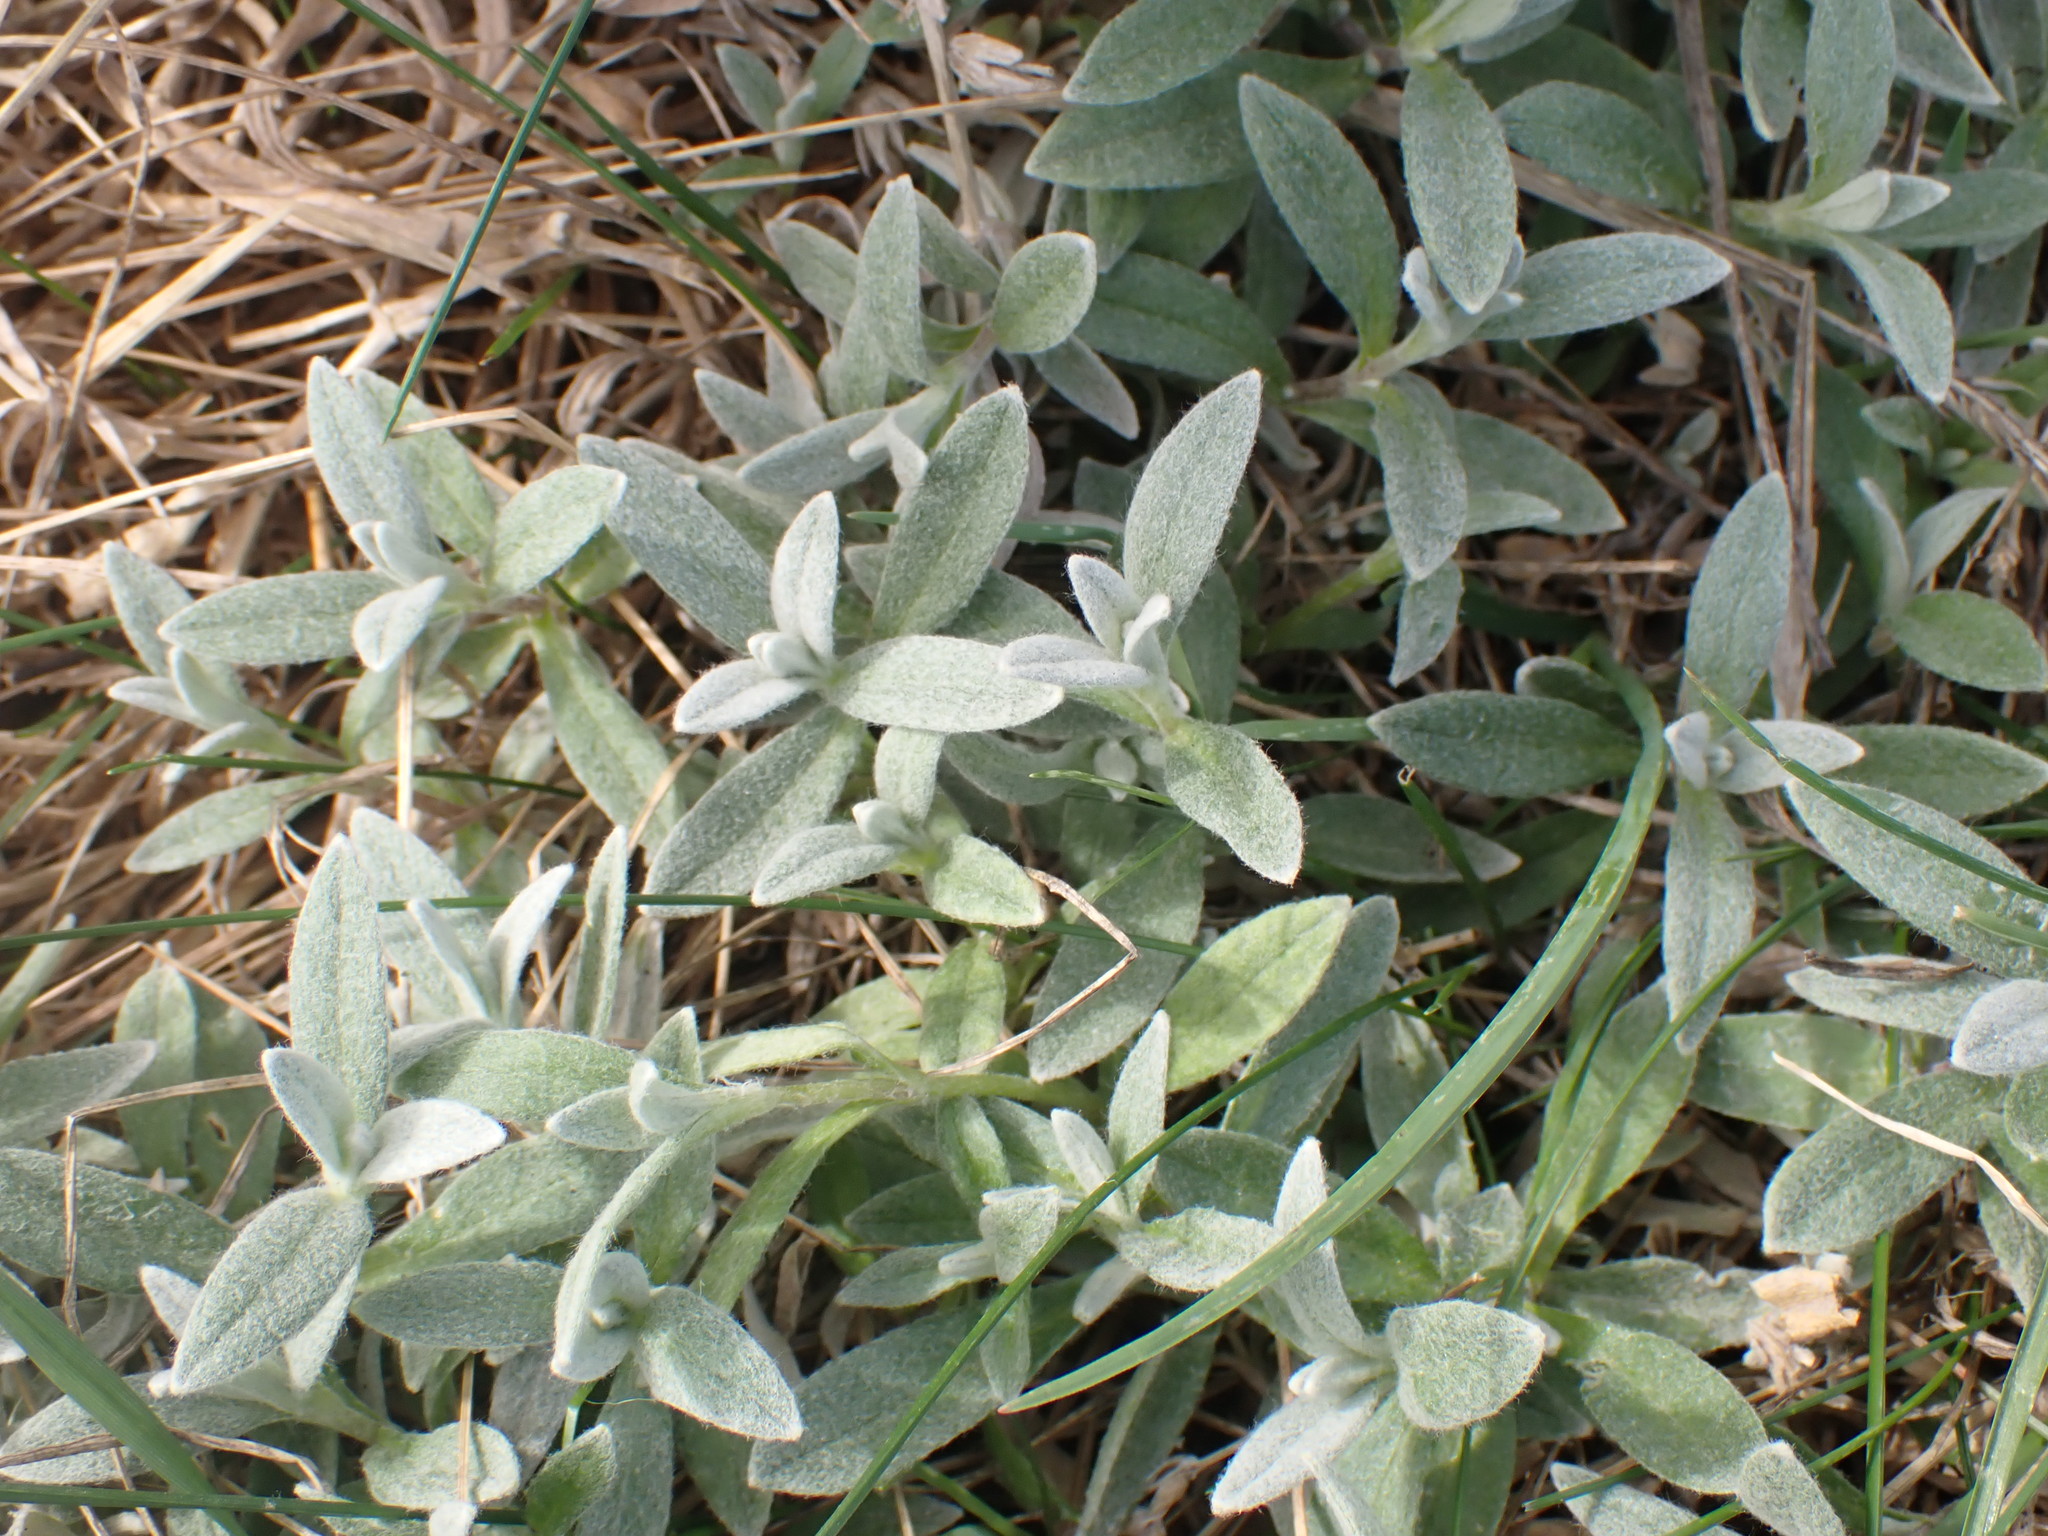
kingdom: Plantae
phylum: Tracheophyta
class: Magnoliopsida
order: Caryophyllales
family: Caryophyllaceae
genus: Cerastium
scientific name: Cerastium tomentosum
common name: Snow-in-summer
